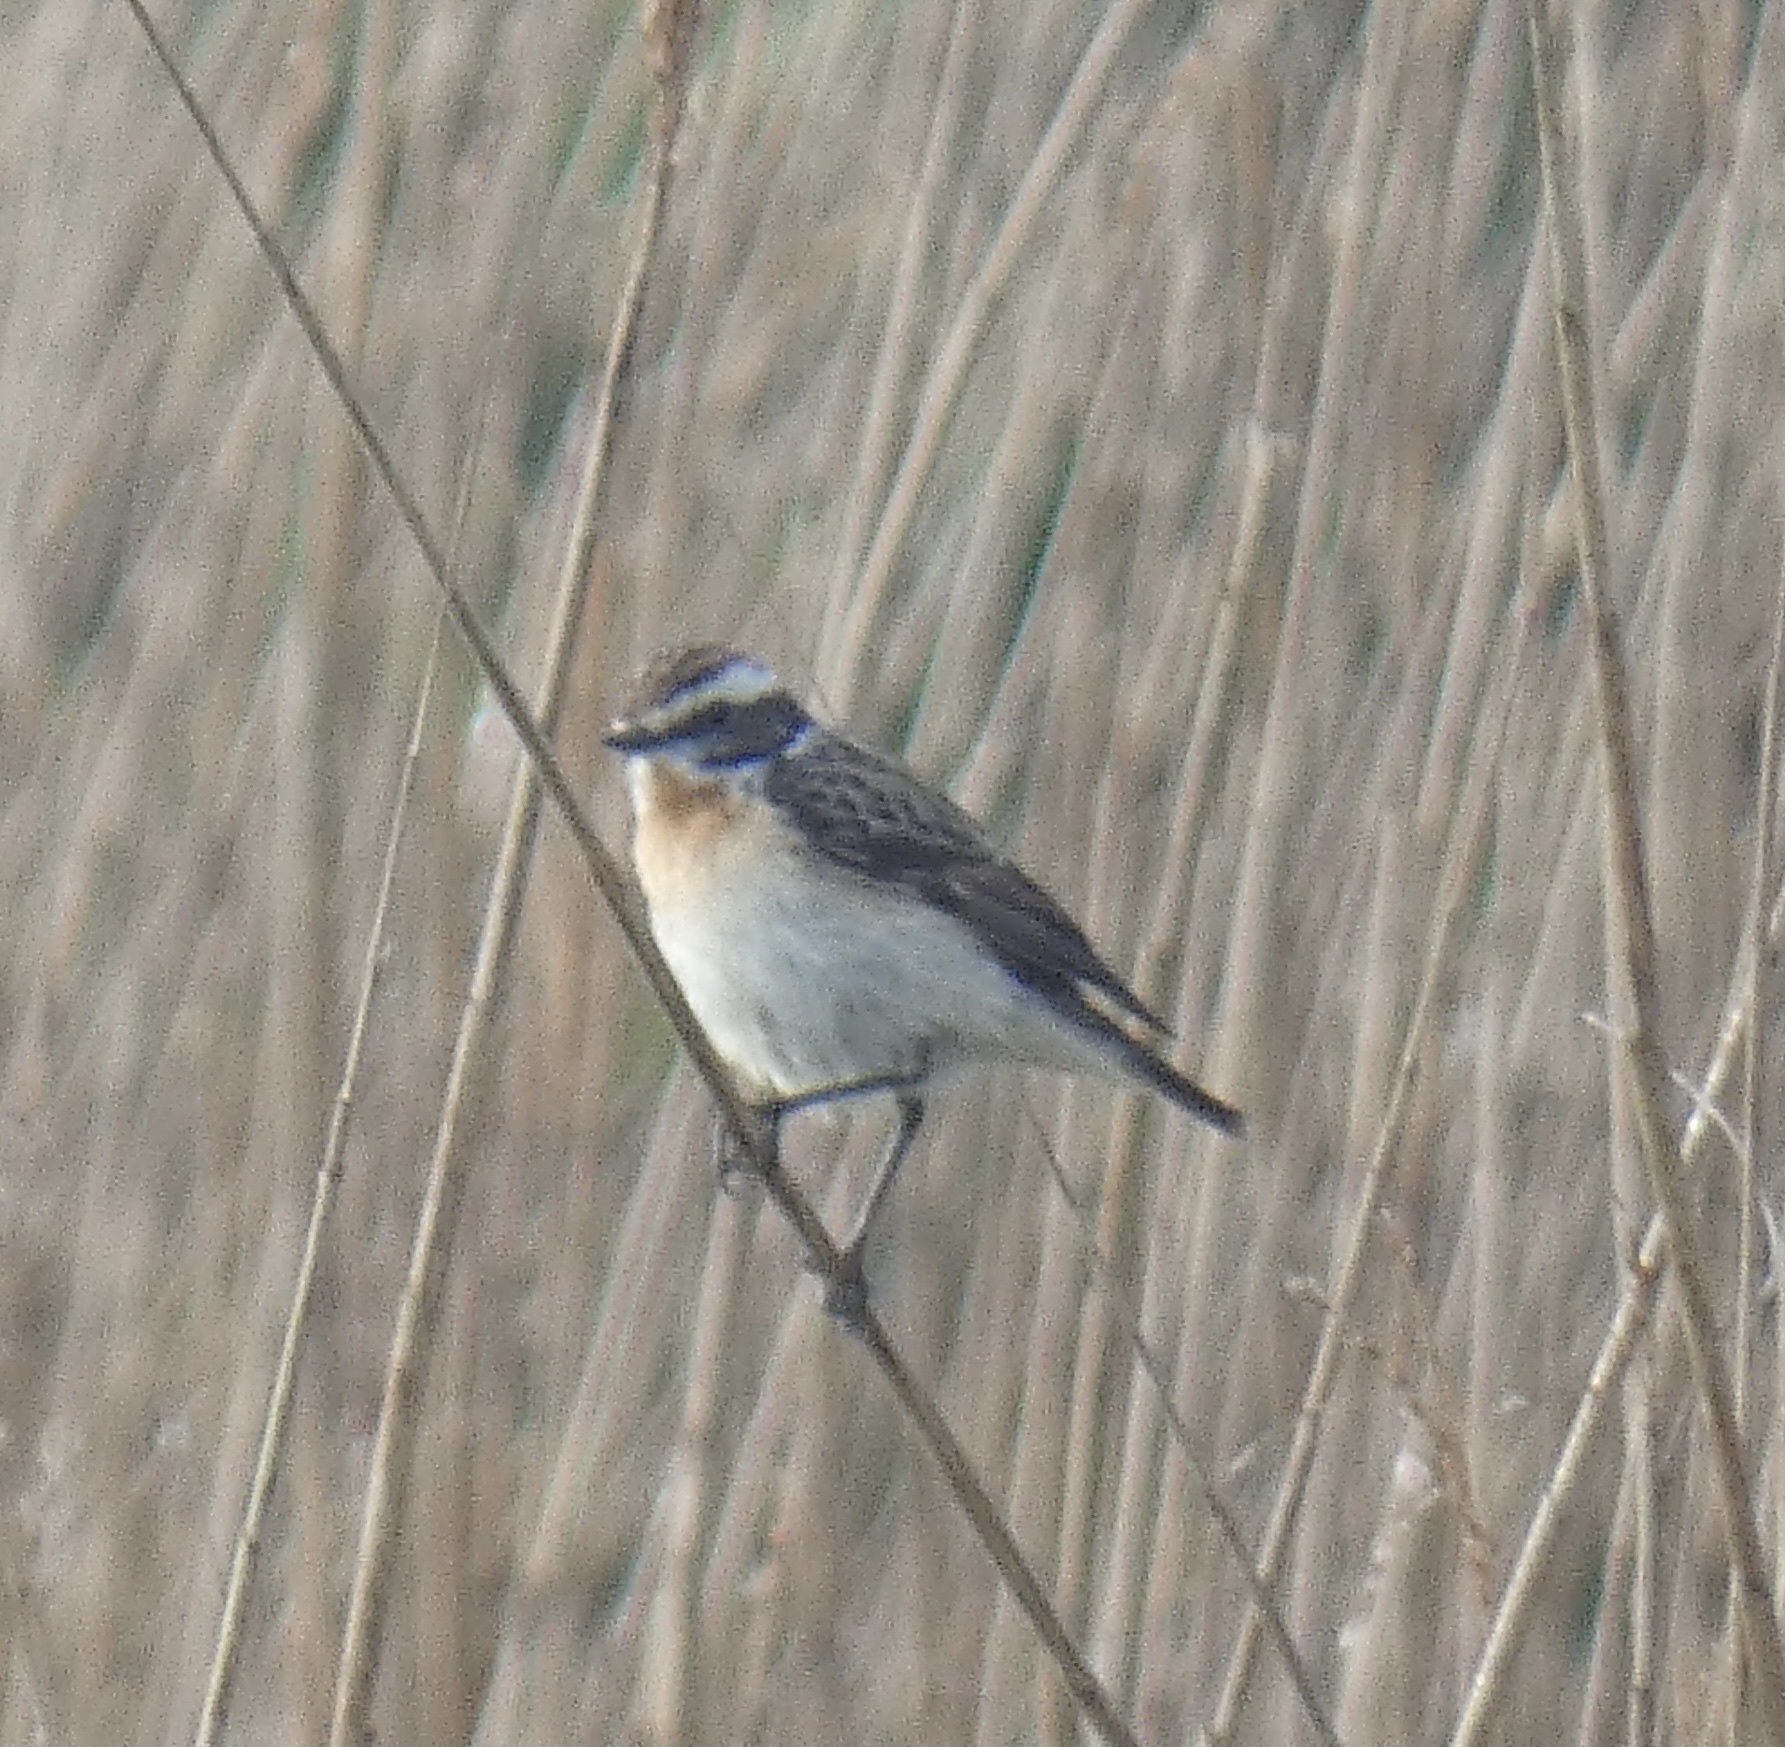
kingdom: Animalia
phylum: Chordata
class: Aves
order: Passeriformes
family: Muscicapidae
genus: Saxicola
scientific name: Saxicola rubetra
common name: Whinchat
